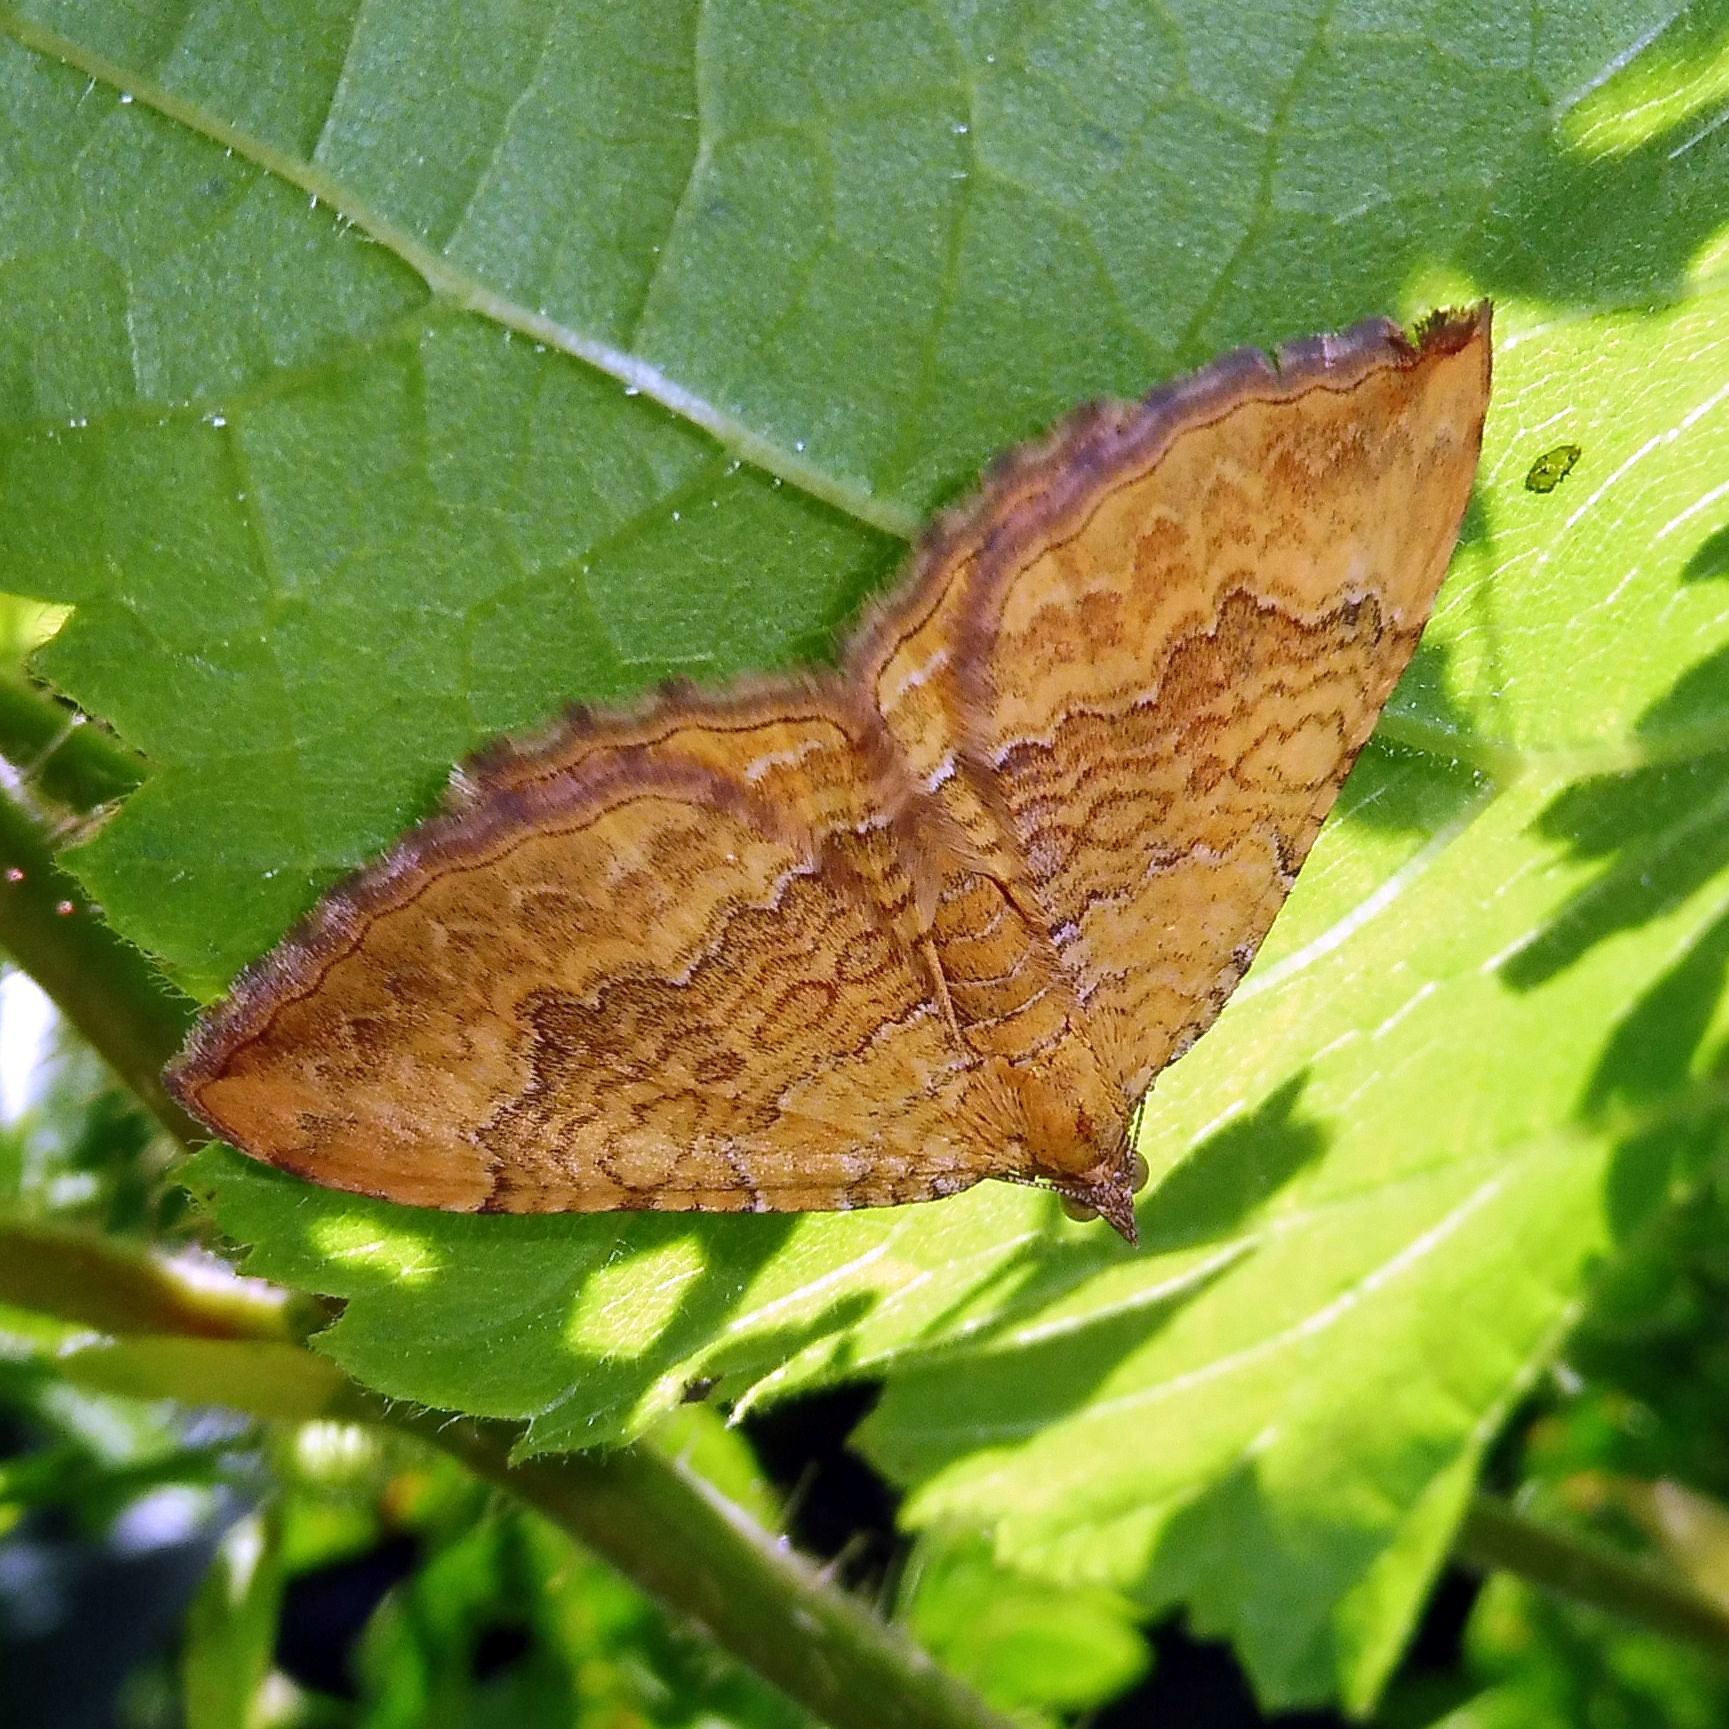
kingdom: Animalia
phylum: Arthropoda
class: Insecta
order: Lepidoptera
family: Geometridae
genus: Camptogramma
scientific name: Camptogramma bilineata
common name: Yellow shell
